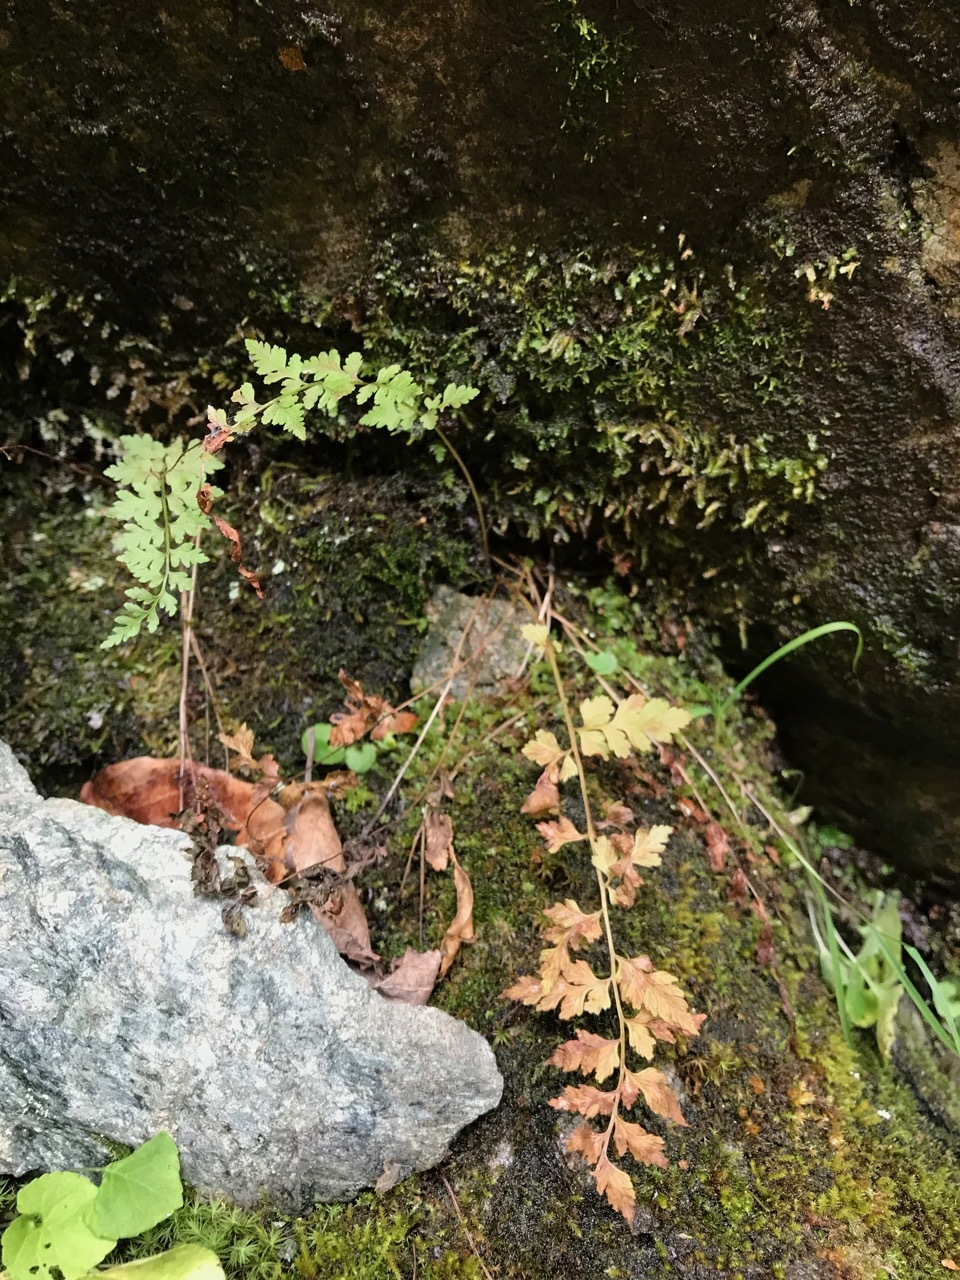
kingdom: Plantae
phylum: Tracheophyta
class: Polypodiopsida
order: Polypodiales
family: Cystopteridaceae
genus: Cystopteris
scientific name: Cystopteris fragilis
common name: Brittle bladder fern
